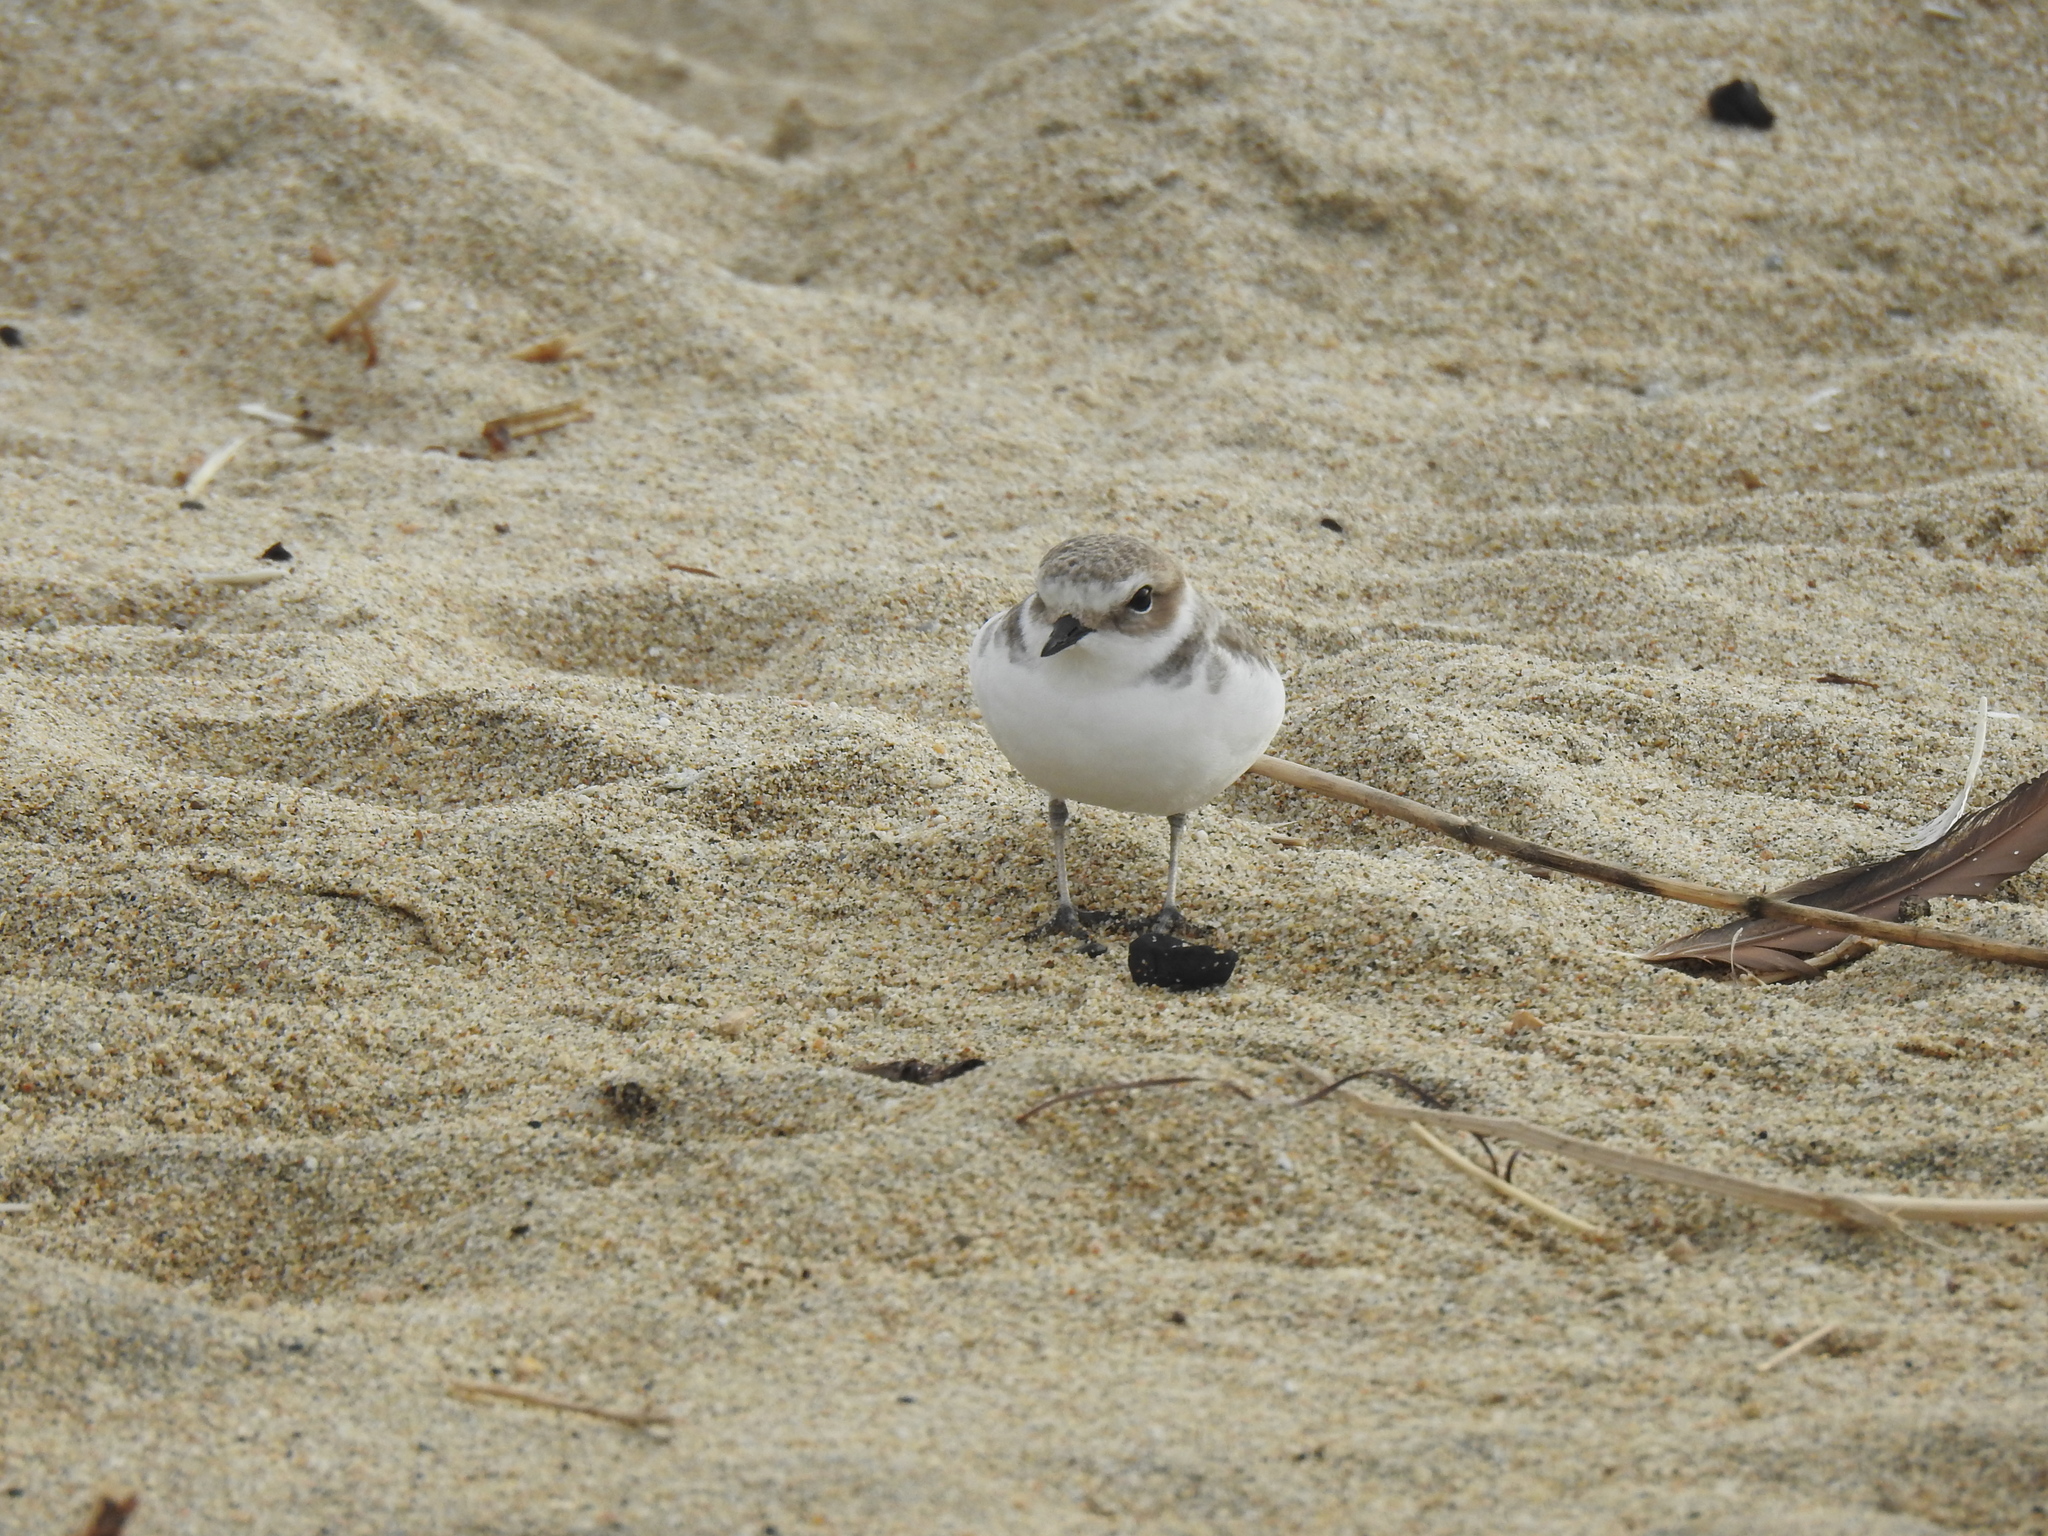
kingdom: Animalia
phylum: Chordata
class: Aves
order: Charadriiformes
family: Charadriidae
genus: Anarhynchus
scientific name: Anarhynchus
